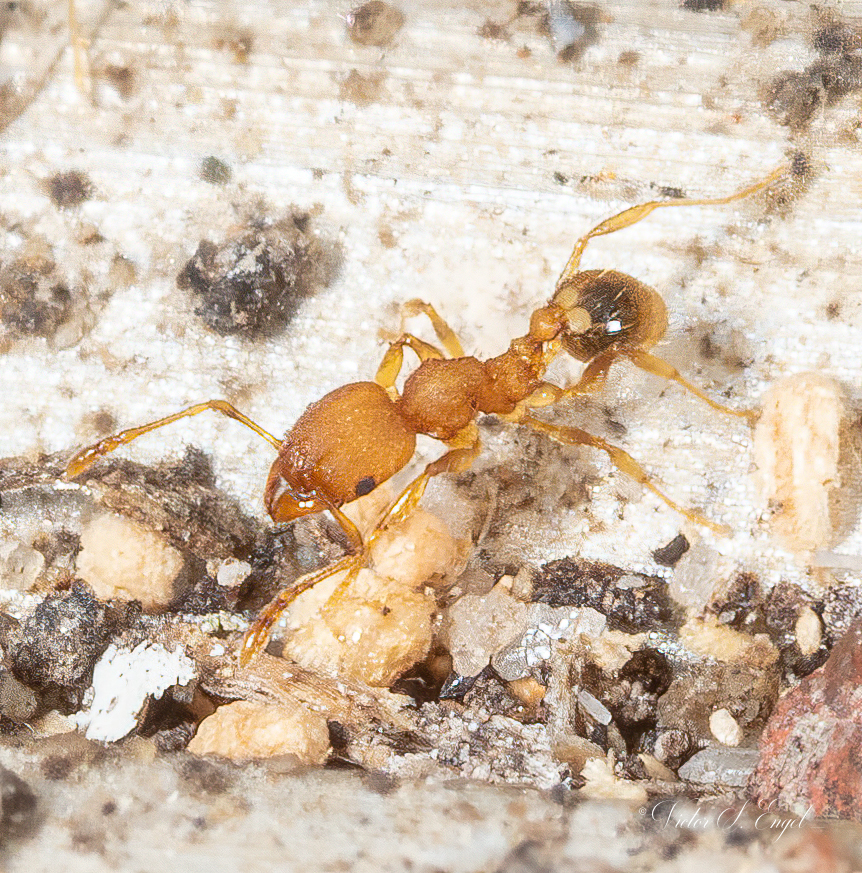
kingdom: Animalia
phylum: Arthropoda
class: Insecta
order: Hymenoptera
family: Formicidae
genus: Pheidole
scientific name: Pheidole bilimeki
